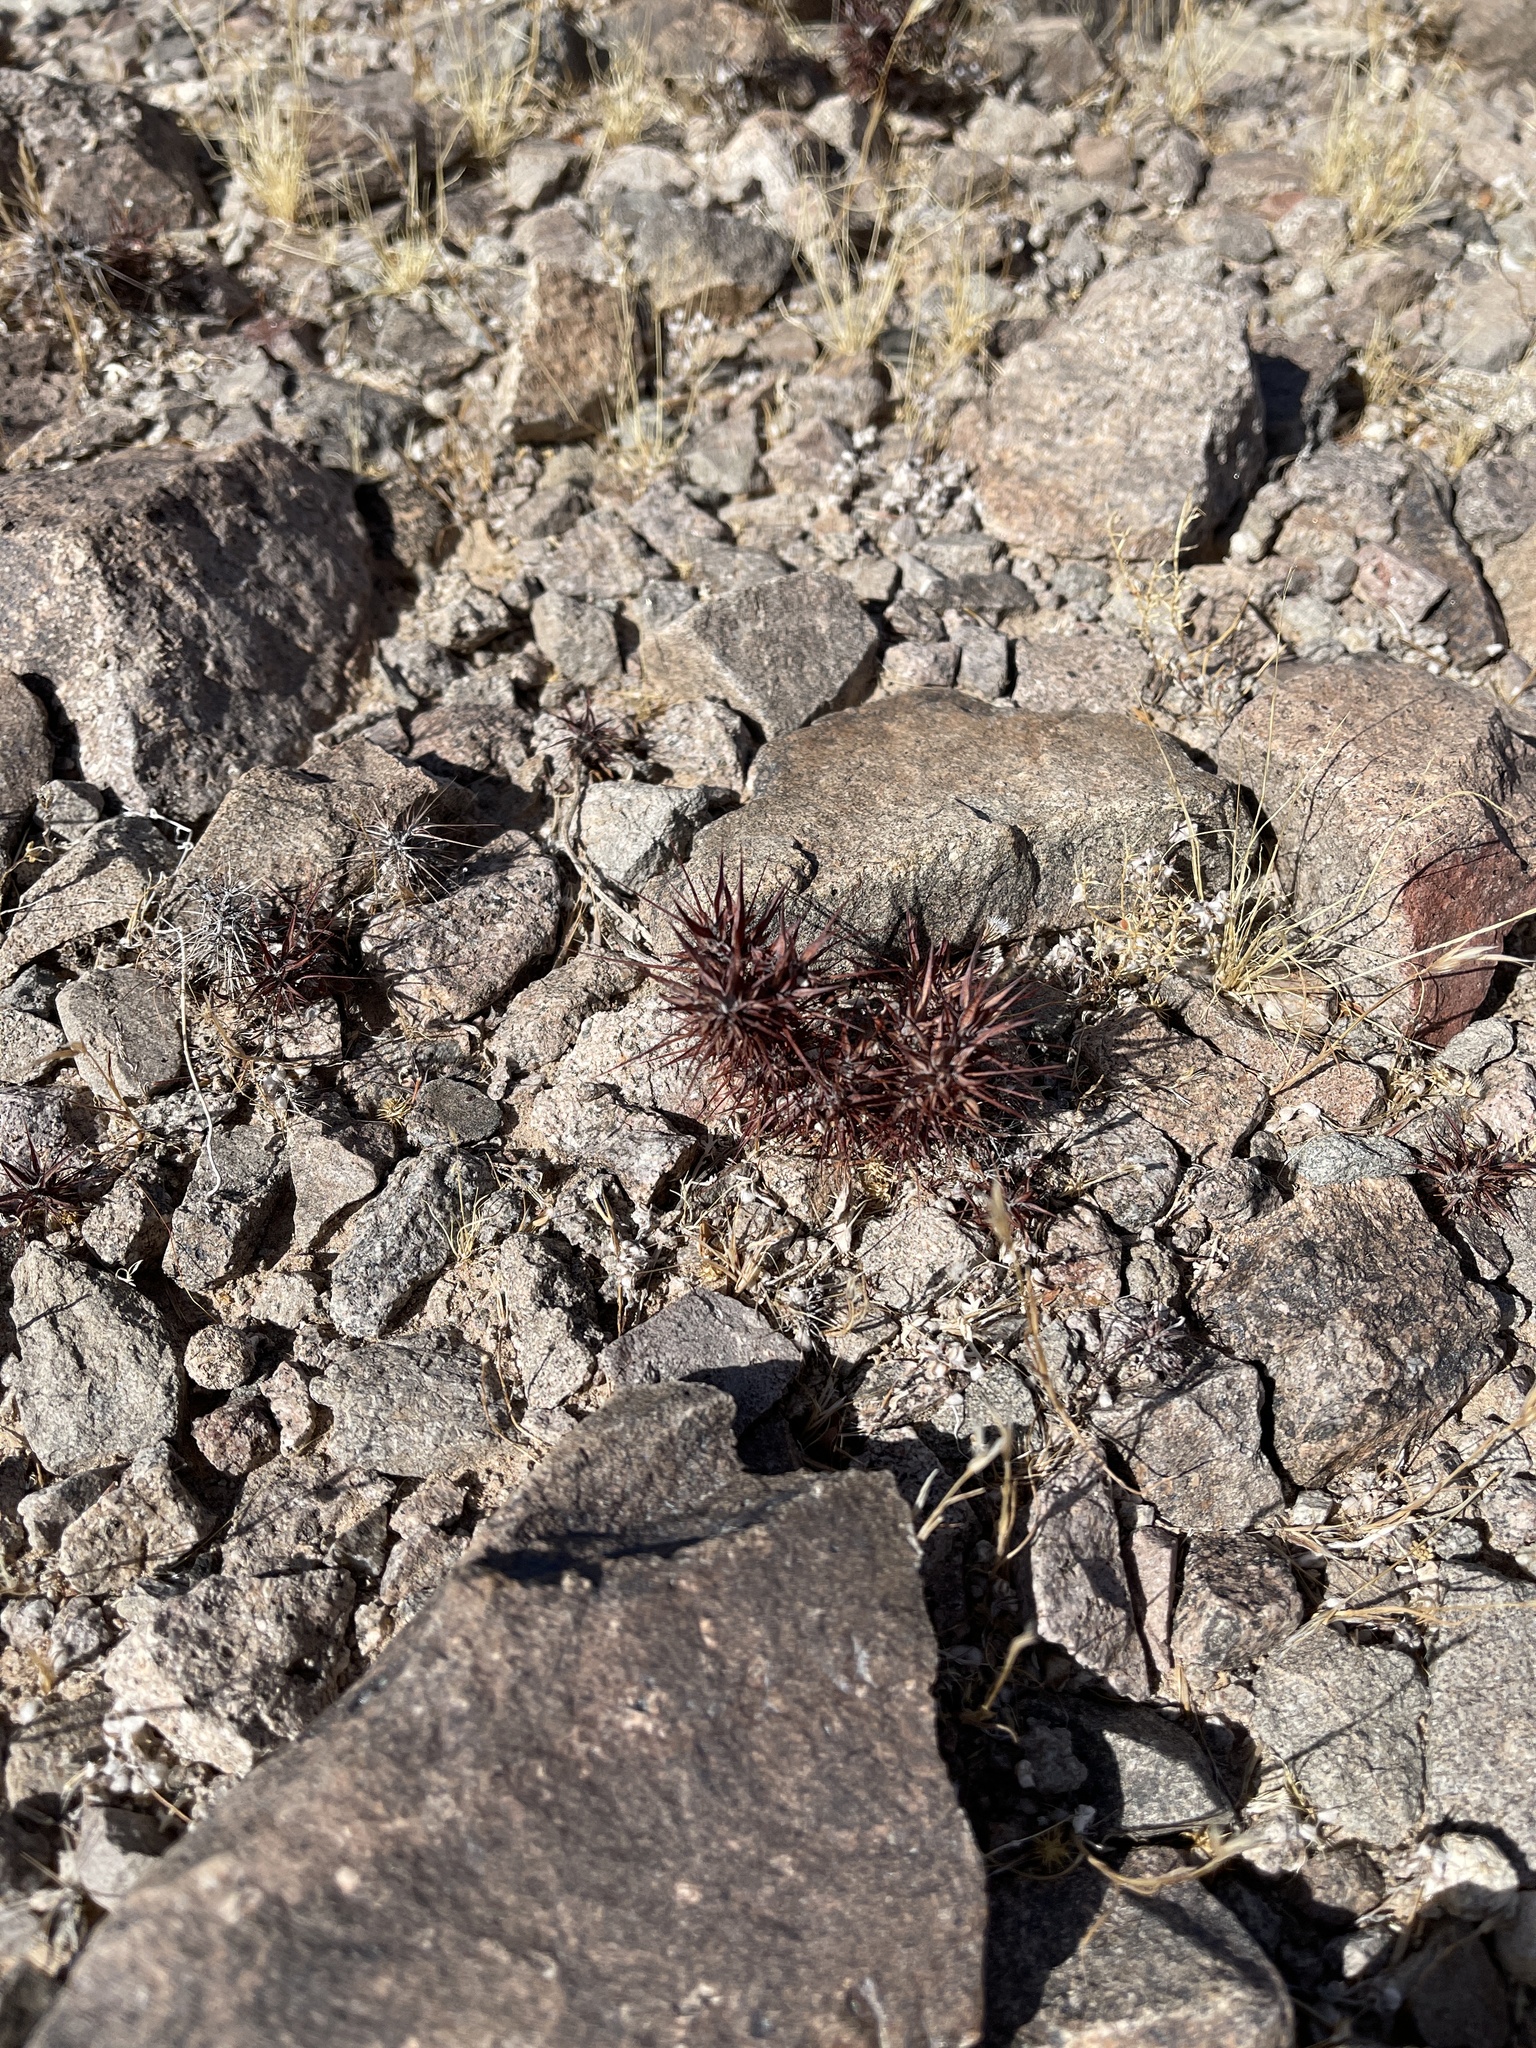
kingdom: Plantae
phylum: Tracheophyta
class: Magnoliopsida
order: Caryophyllales
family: Polygonaceae
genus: Chorizanthe
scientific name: Chorizanthe rigida
